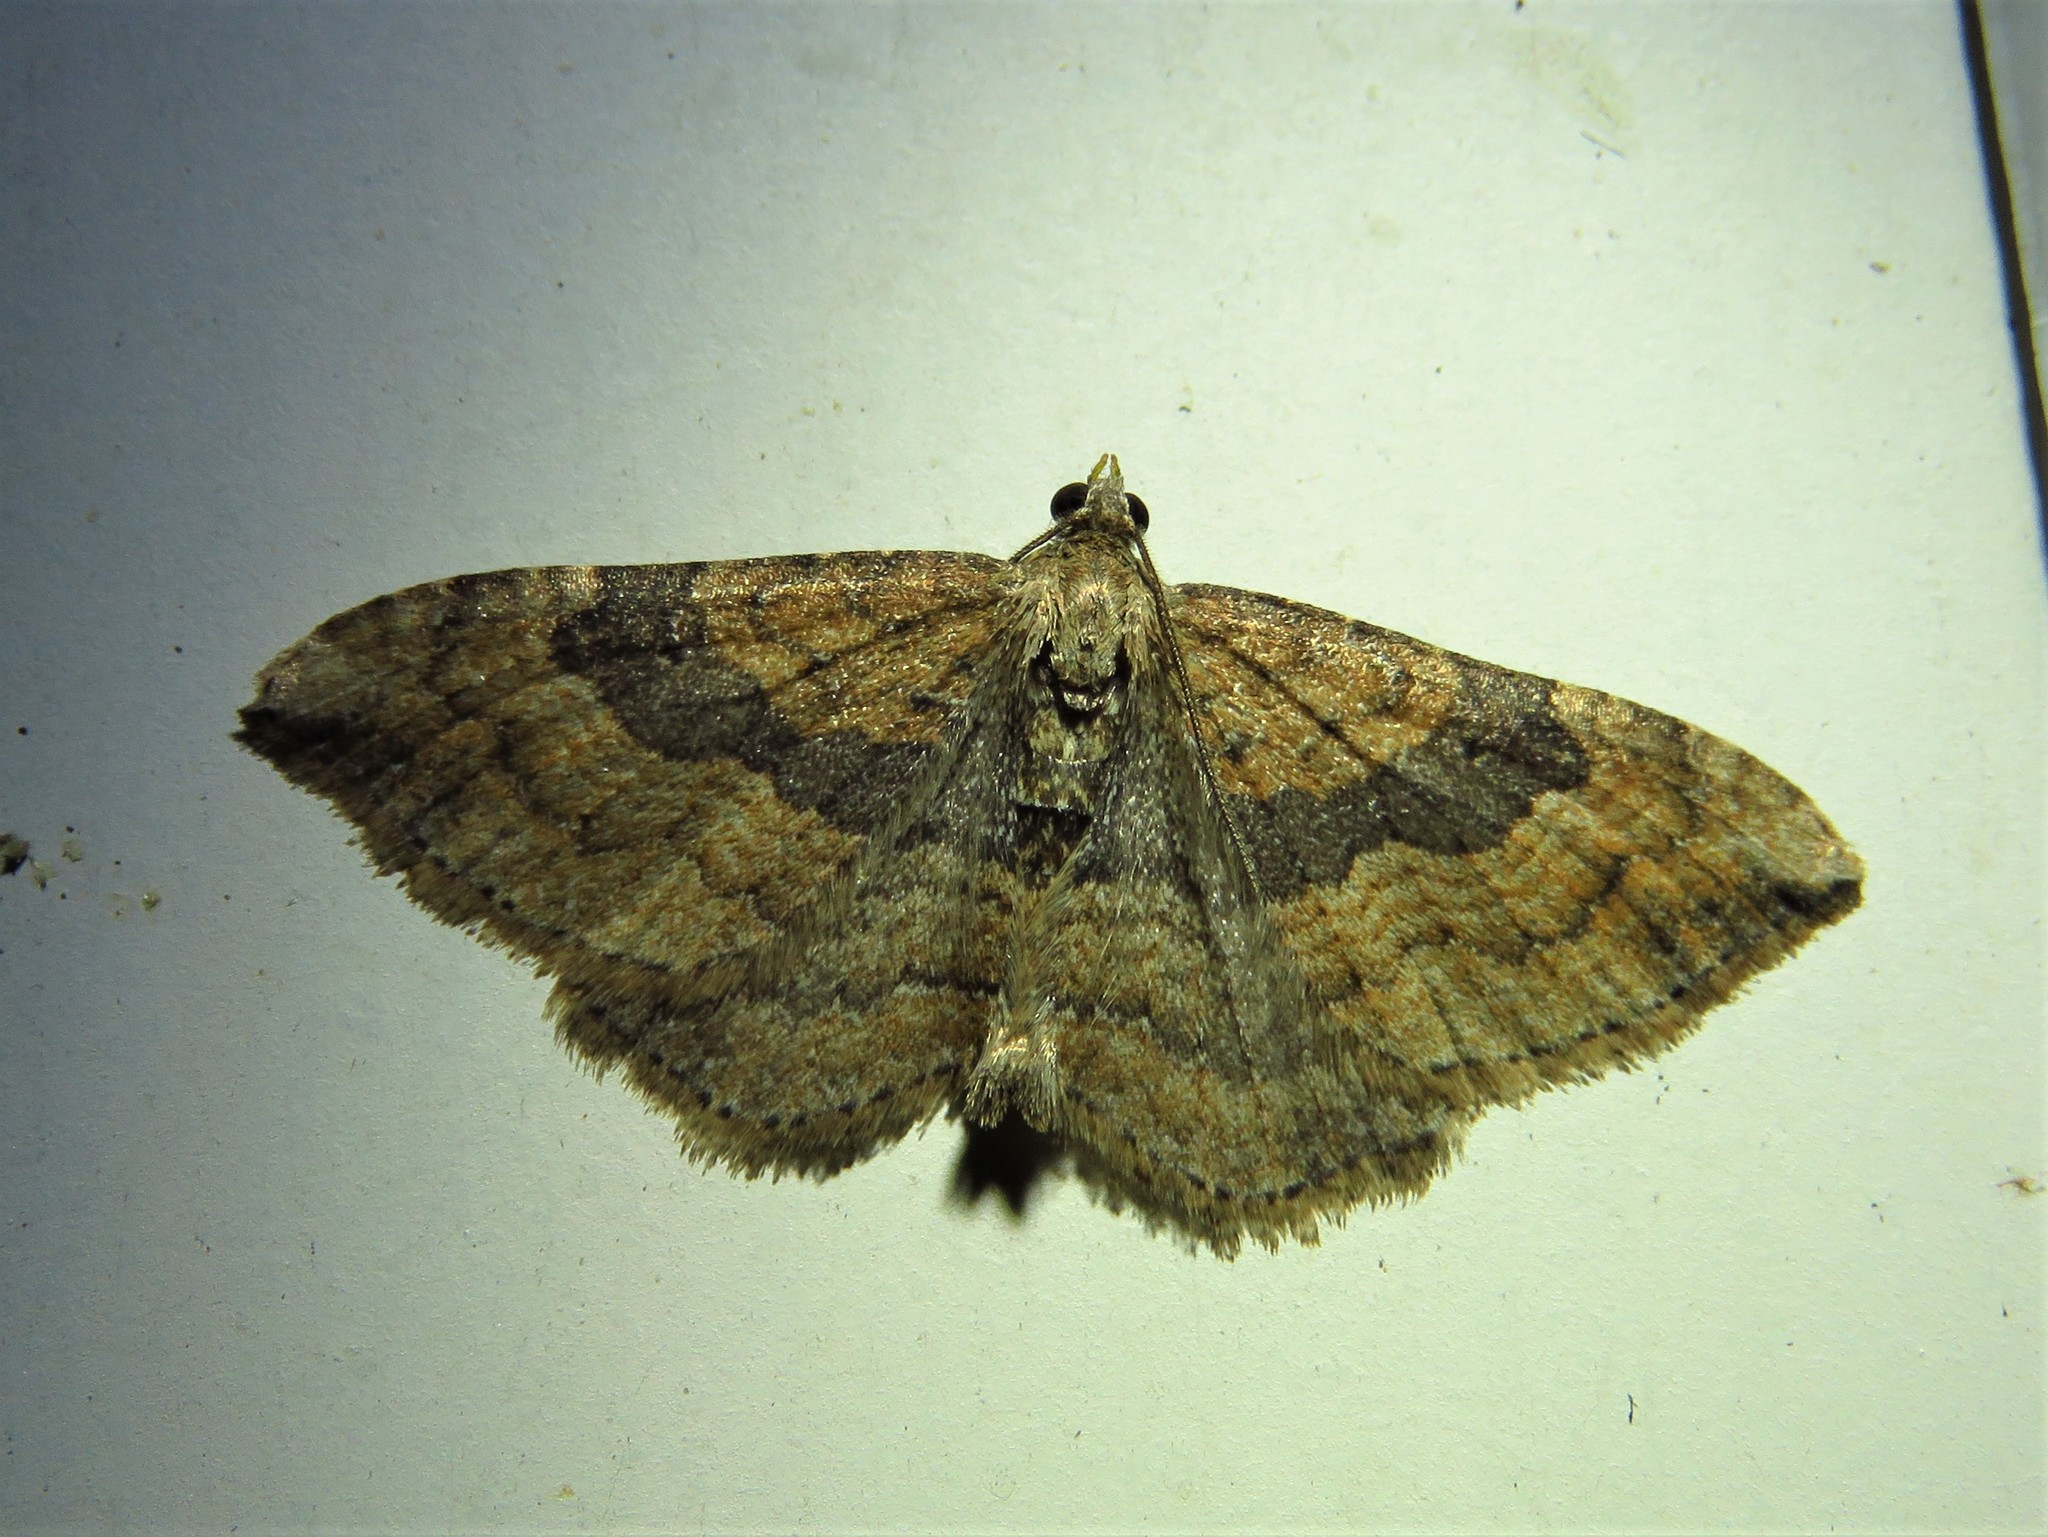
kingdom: Animalia
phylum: Arthropoda
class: Insecta
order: Lepidoptera
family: Geometridae
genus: Orthonama
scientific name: Orthonama obstipata
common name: The gem
